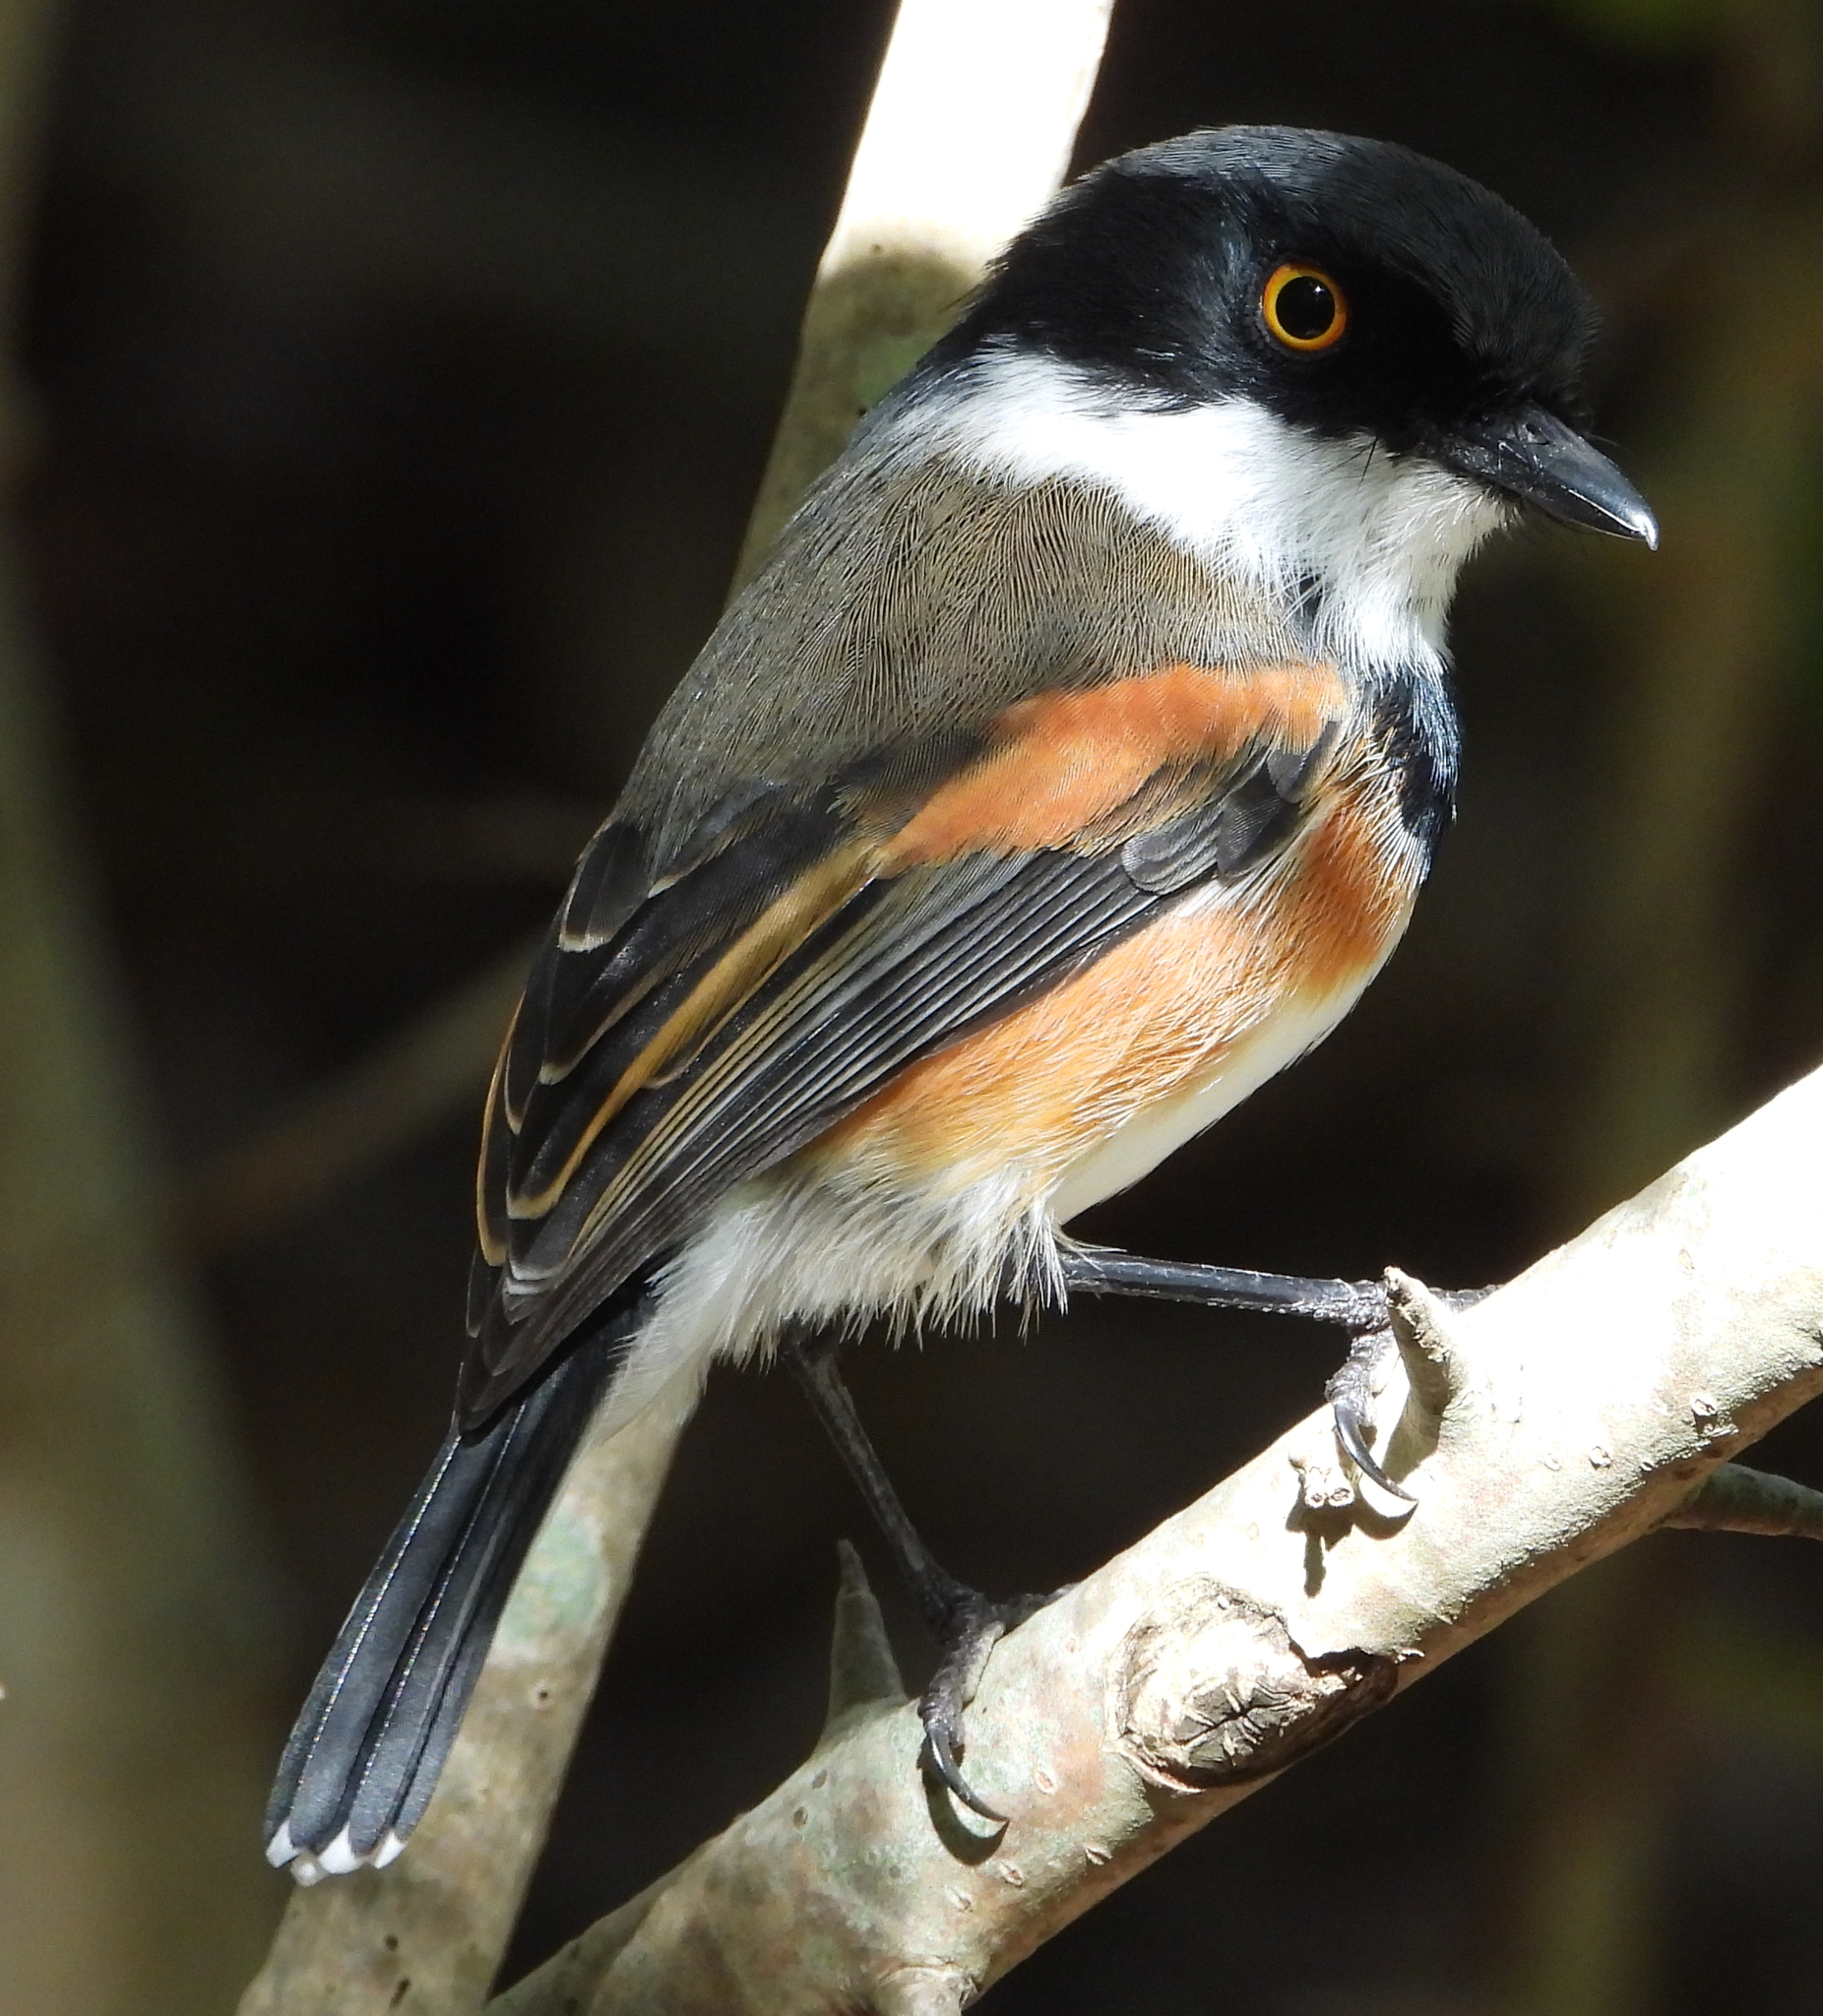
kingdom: Animalia
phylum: Chordata
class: Aves
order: Passeriformes
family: Platysteiridae
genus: Batis
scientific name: Batis capensis
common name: Cape batis
